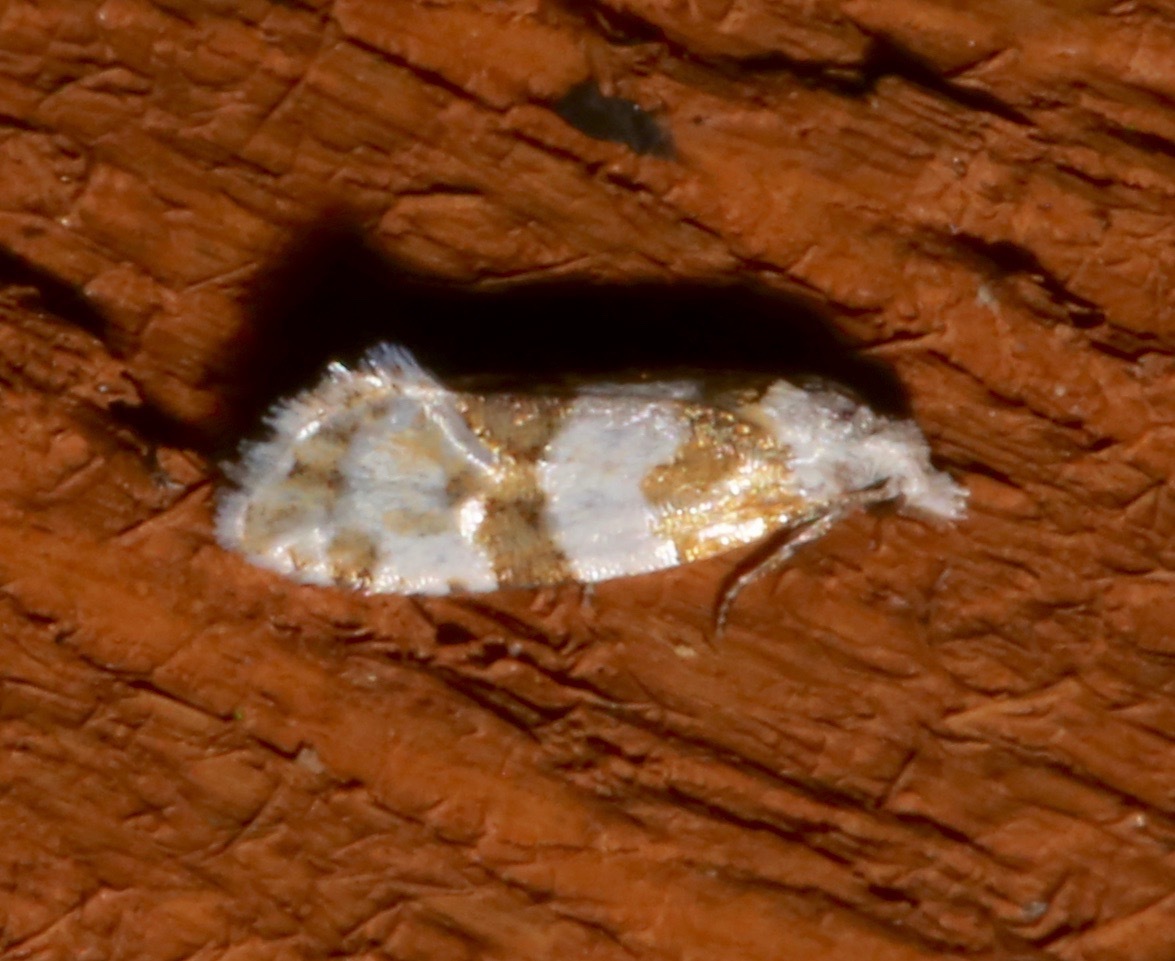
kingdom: Animalia
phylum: Arthropoda
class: Insecta
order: Lepidoptera
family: Tortricidae
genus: Aethes
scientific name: Aethes argentilimitana
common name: Silver-bordered aethes
